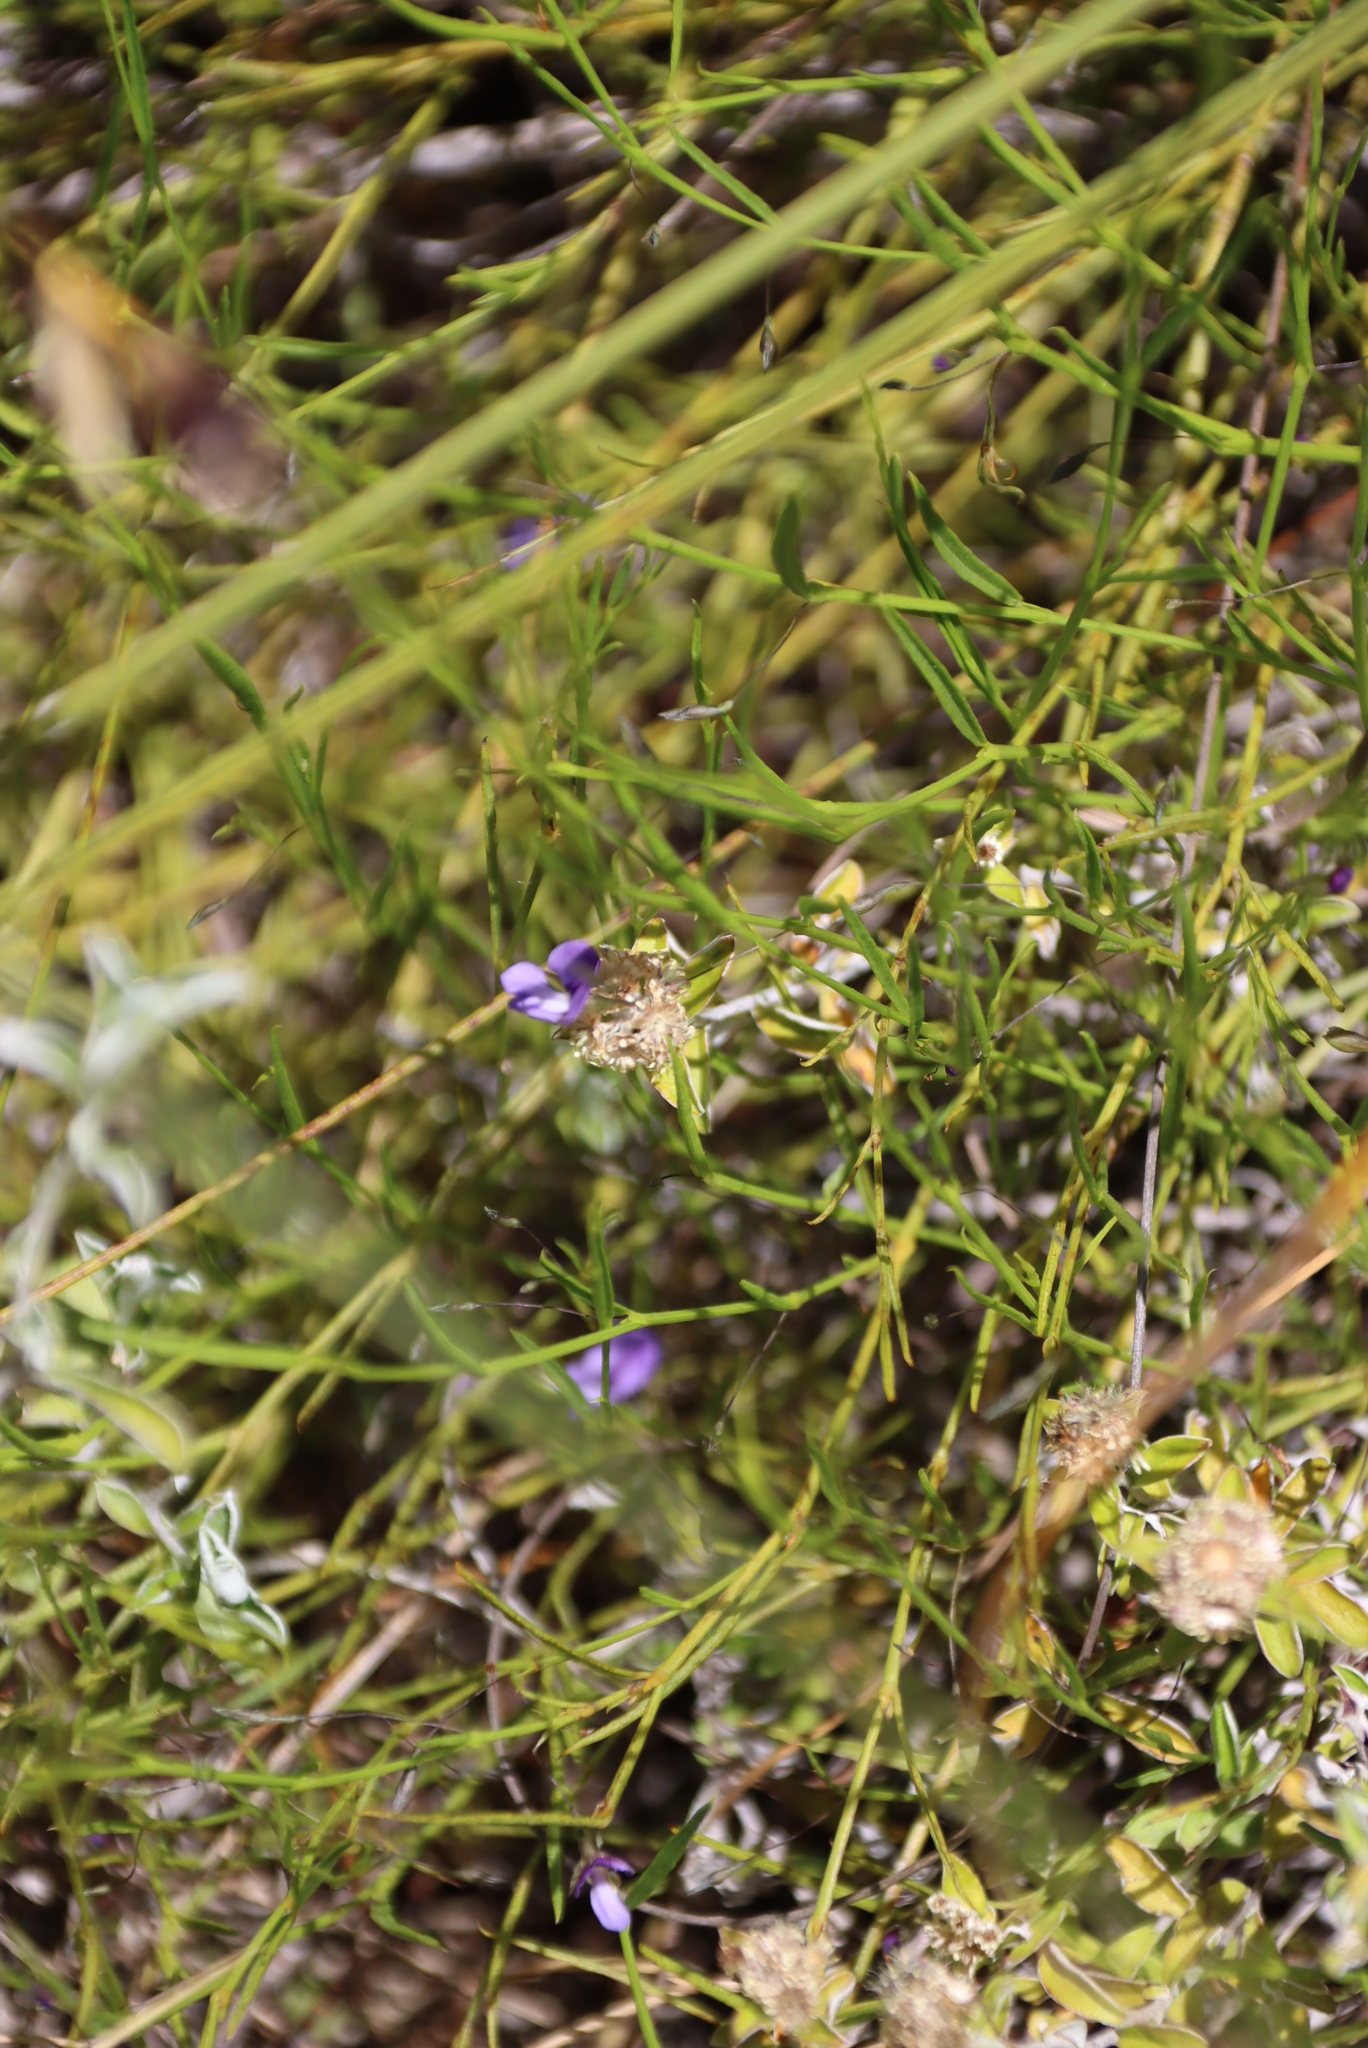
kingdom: Plantae
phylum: Tracheophyta
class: Magnoliopsida
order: Fabales
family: Fabaceae
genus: Psoralea
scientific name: Psoralea asarina
